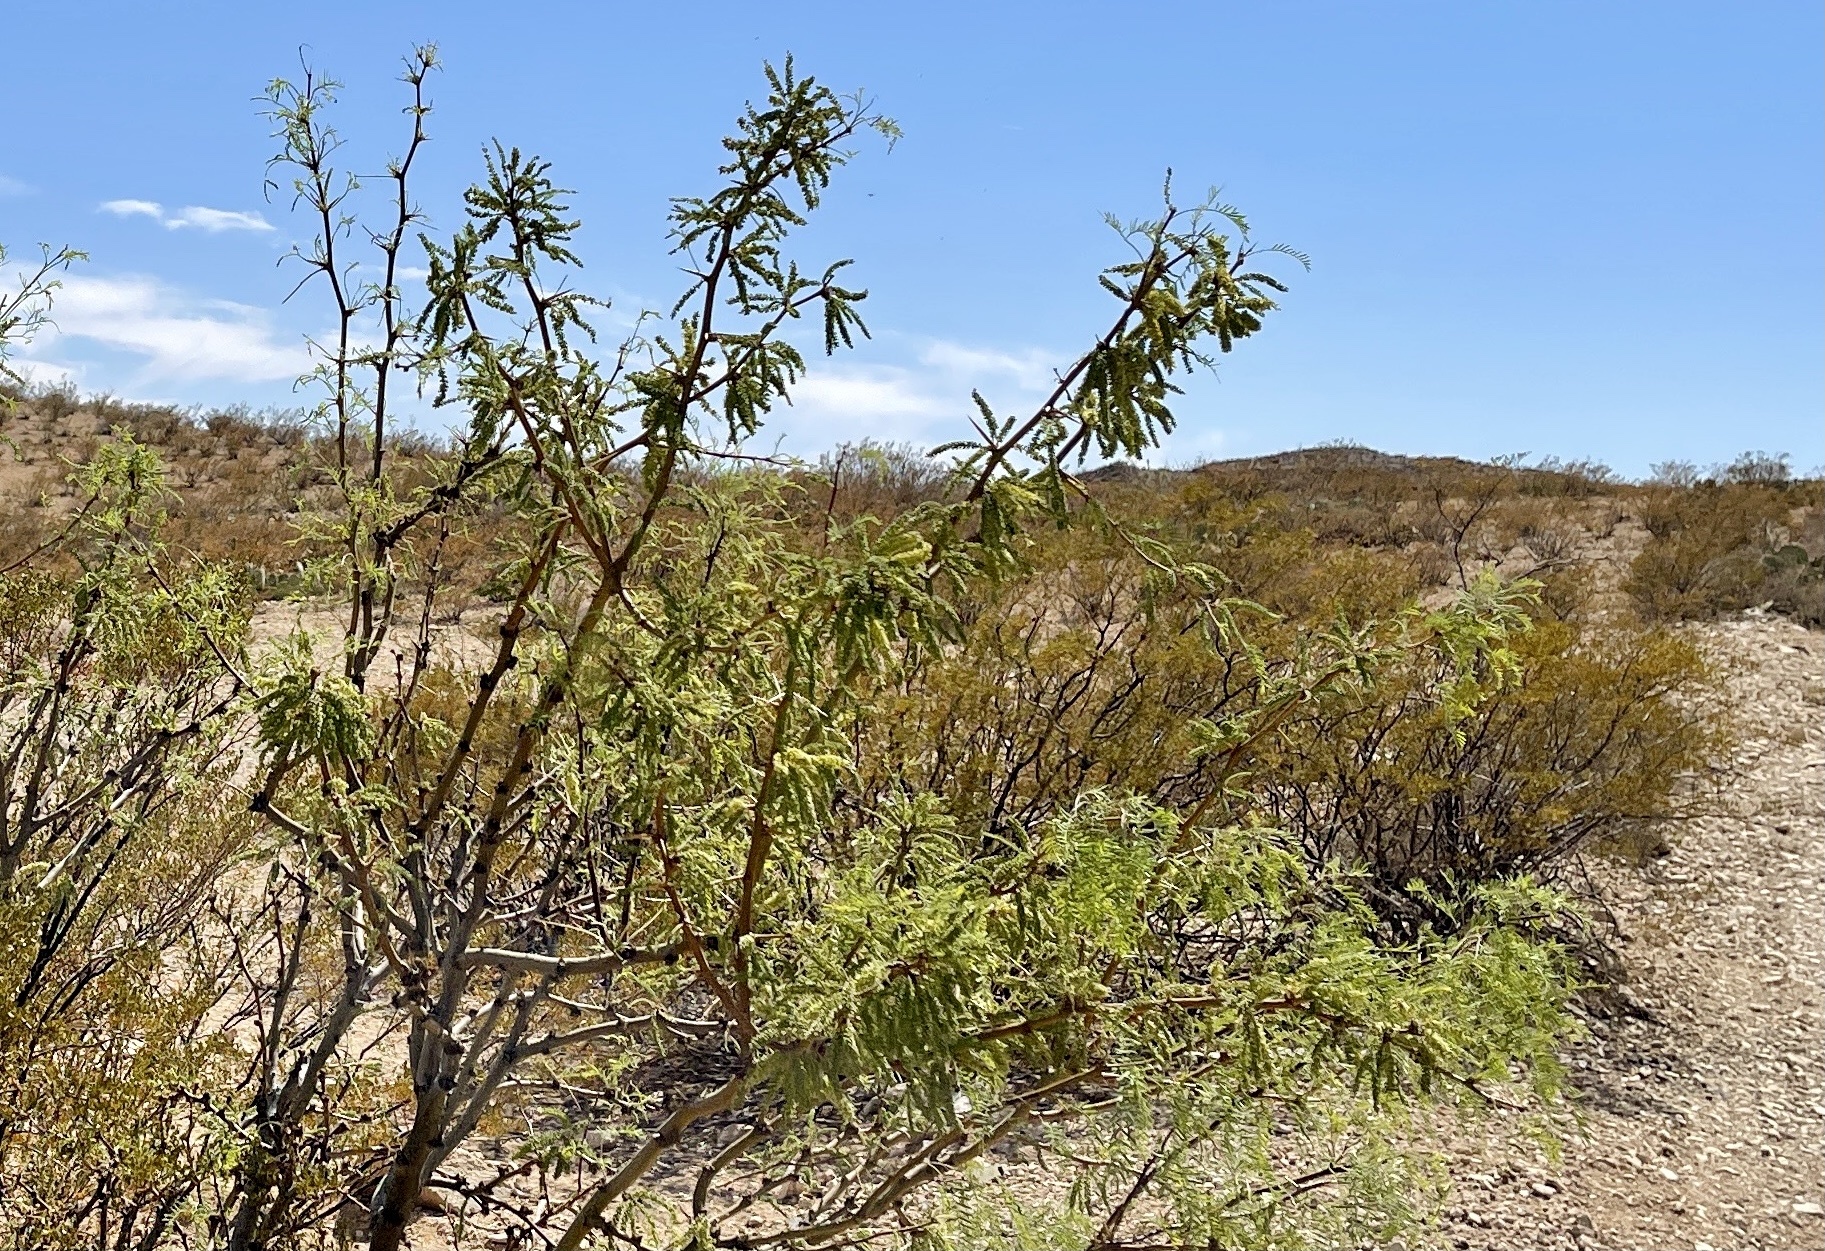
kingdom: Plantae
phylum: Tracheophyta
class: Magnoliopsida
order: Fabales
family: Fabaceae
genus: Prosopis
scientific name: Prosopis glandulosa
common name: Honey mesquite
